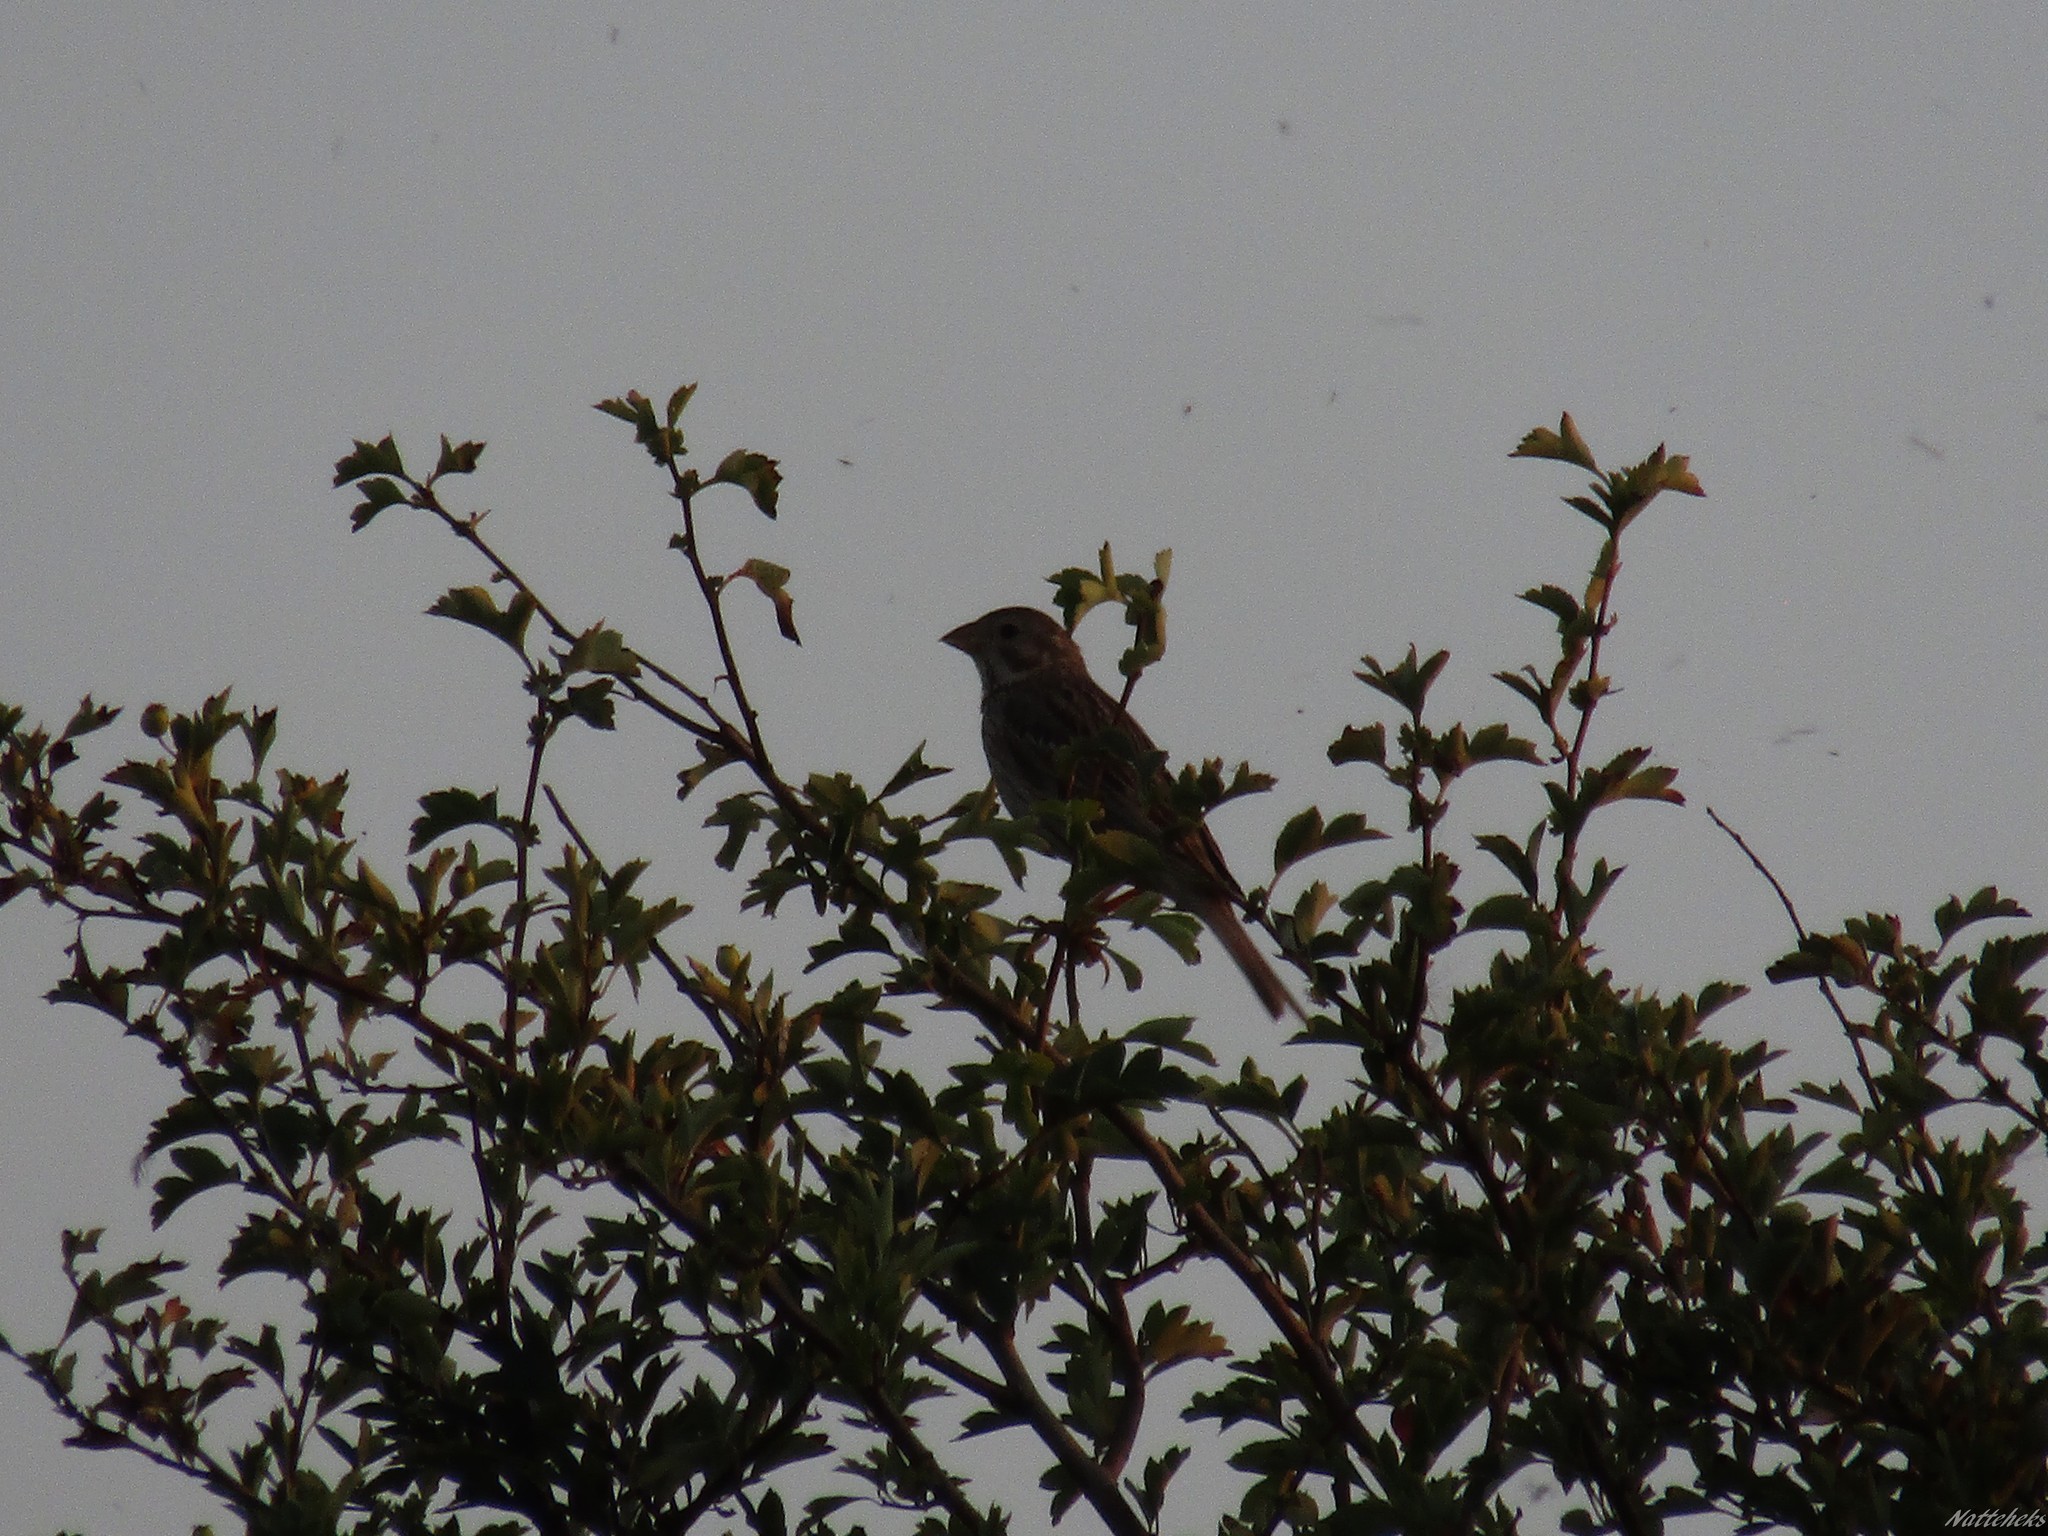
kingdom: Animalia
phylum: Chordata
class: Aves
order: Passeriformes
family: Emberizidae
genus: Emberiza
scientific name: Emberiza calandra
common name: Corn bunting
